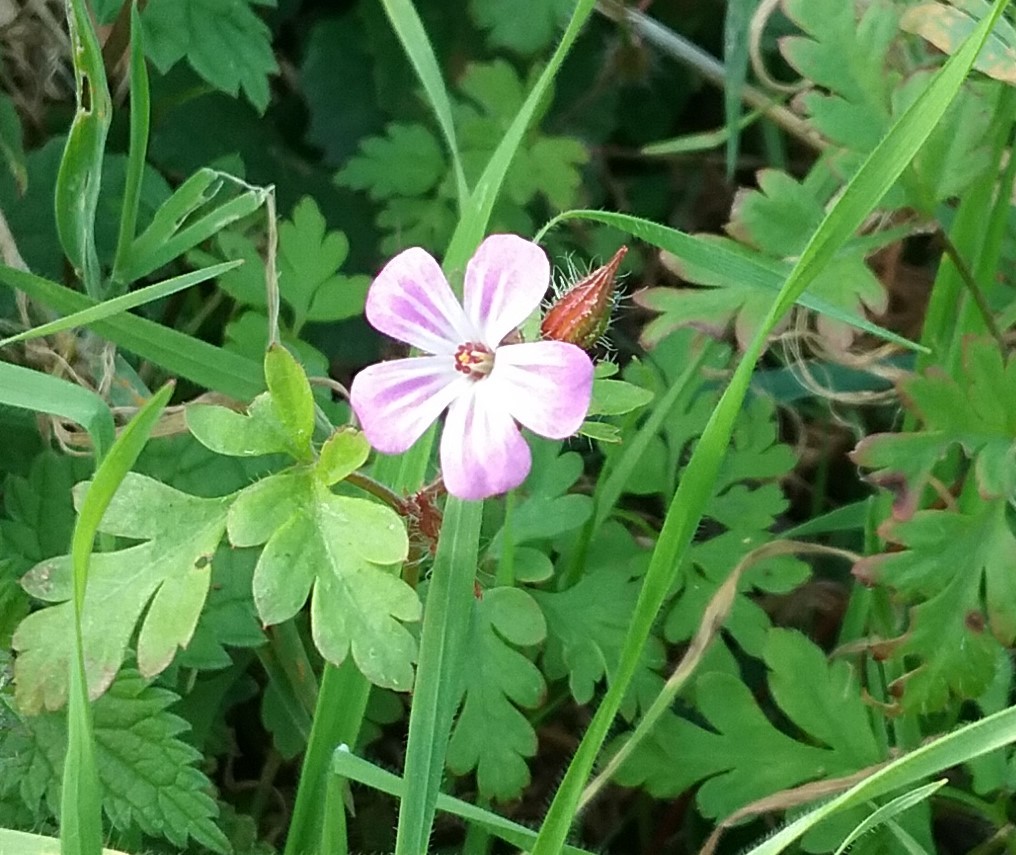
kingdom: Plantae
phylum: Tracheophyta
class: Magnoliopsida
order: Geraniales
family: Geraniaceae
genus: Geranium
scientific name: Geranium robertianum
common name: Herb-robert
